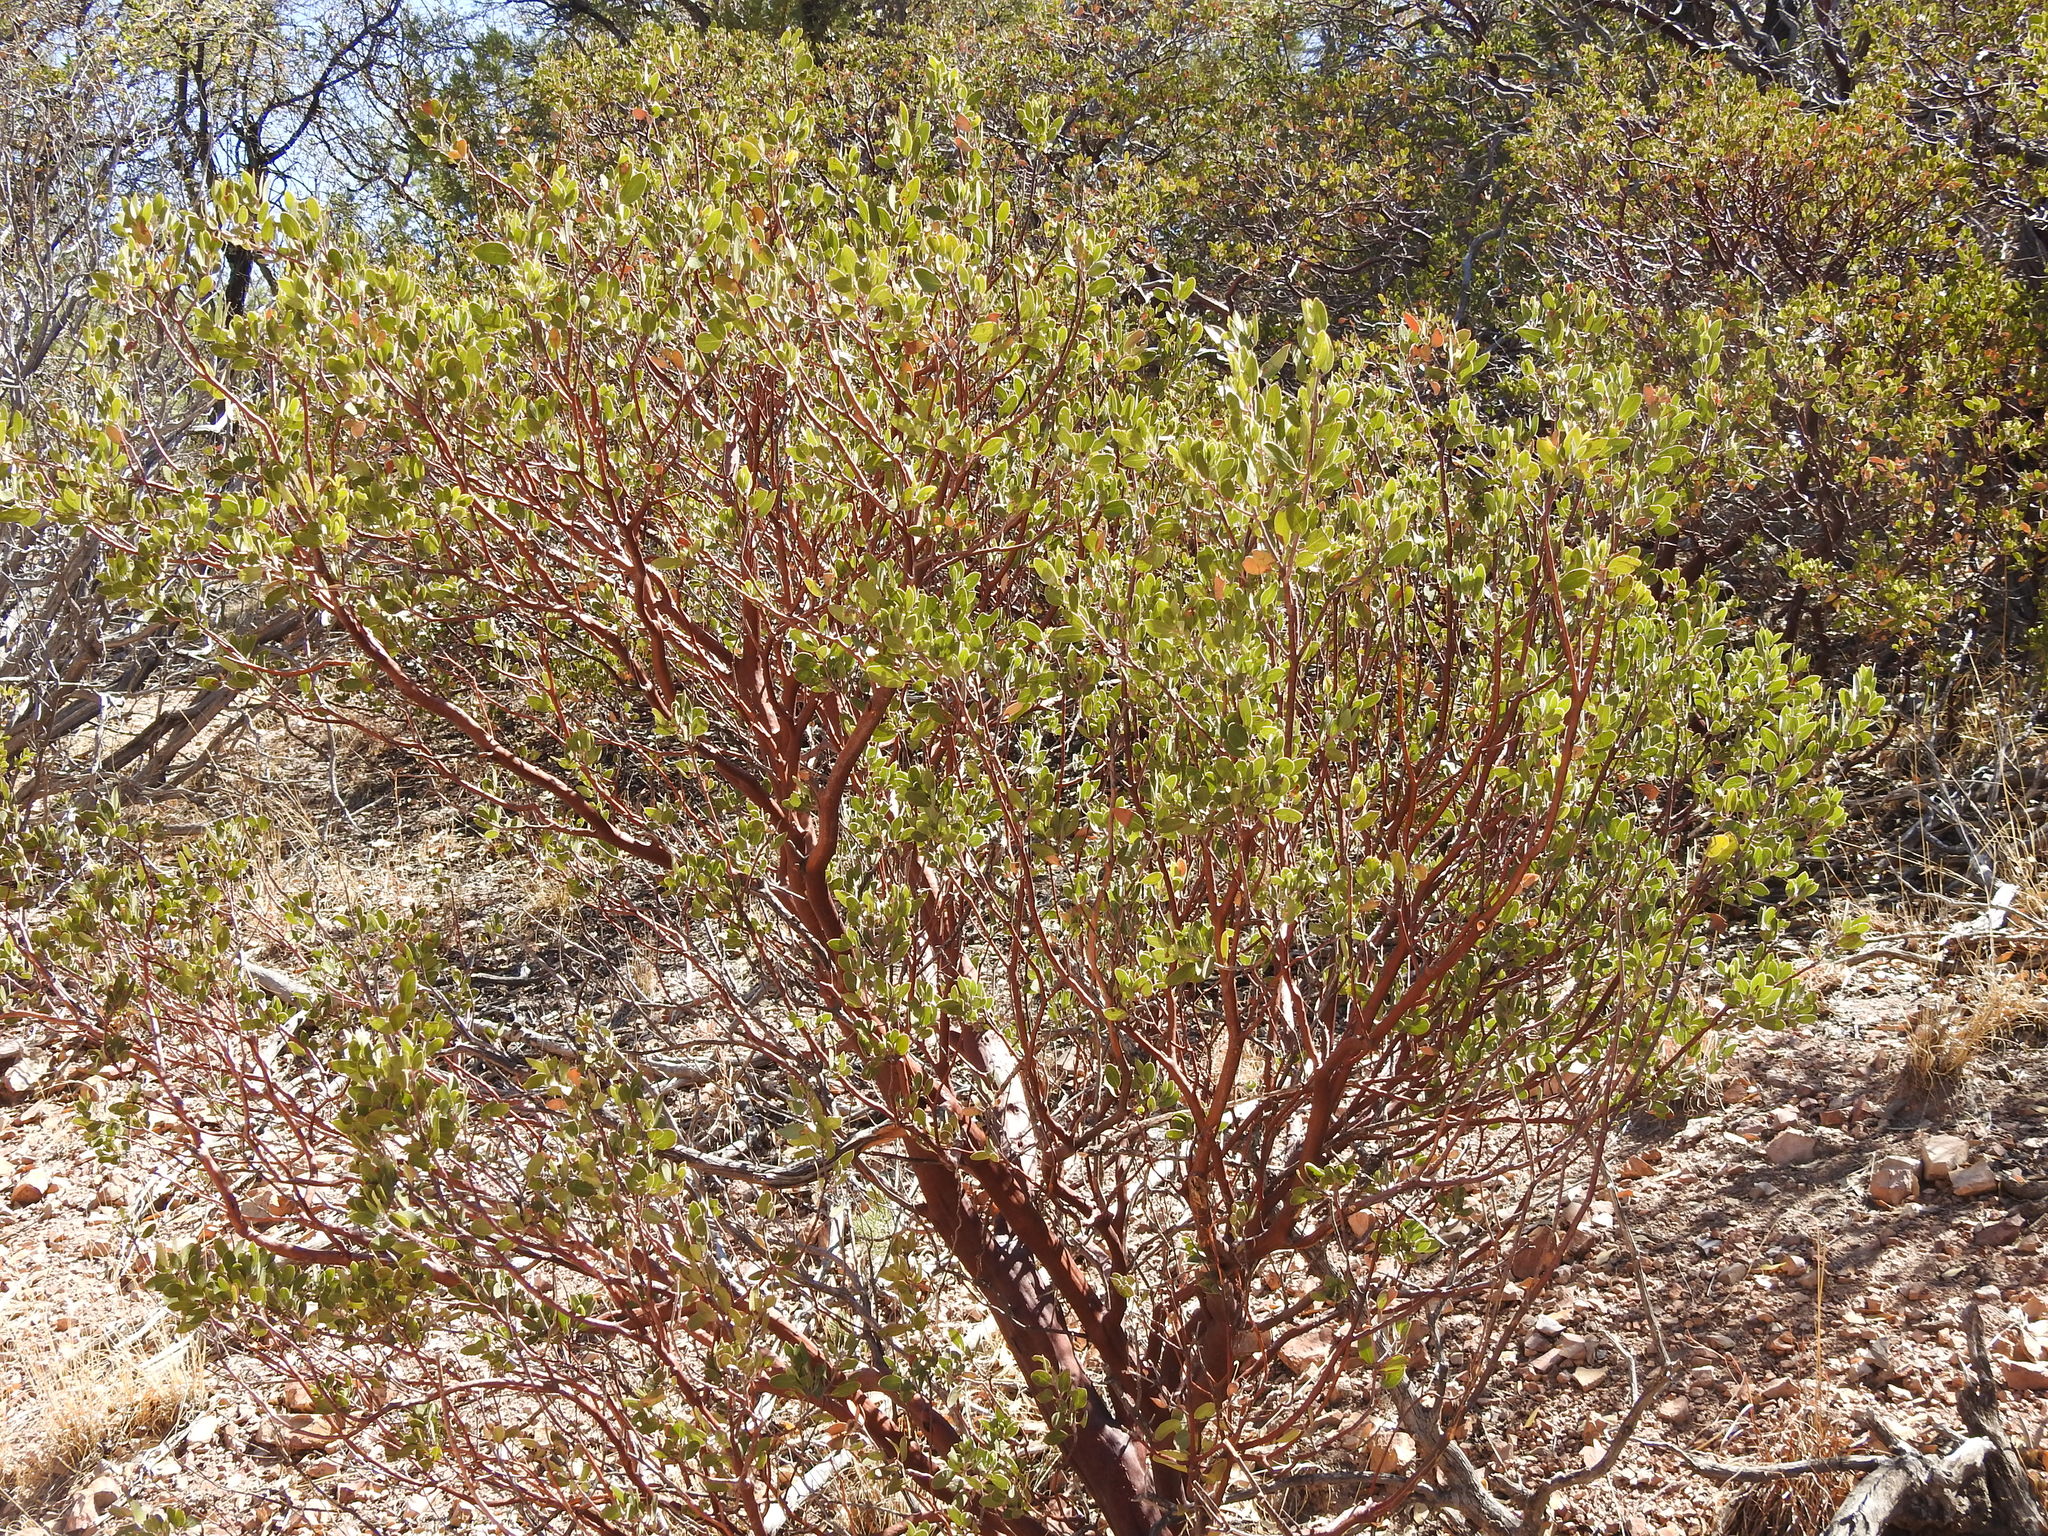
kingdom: Plantae
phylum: Tracheophyta
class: Magnoliopsida
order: Ericales
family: Ericaceae
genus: Arctostaphylos
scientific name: Arctostaphylos pungens
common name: Mexican manzanita
